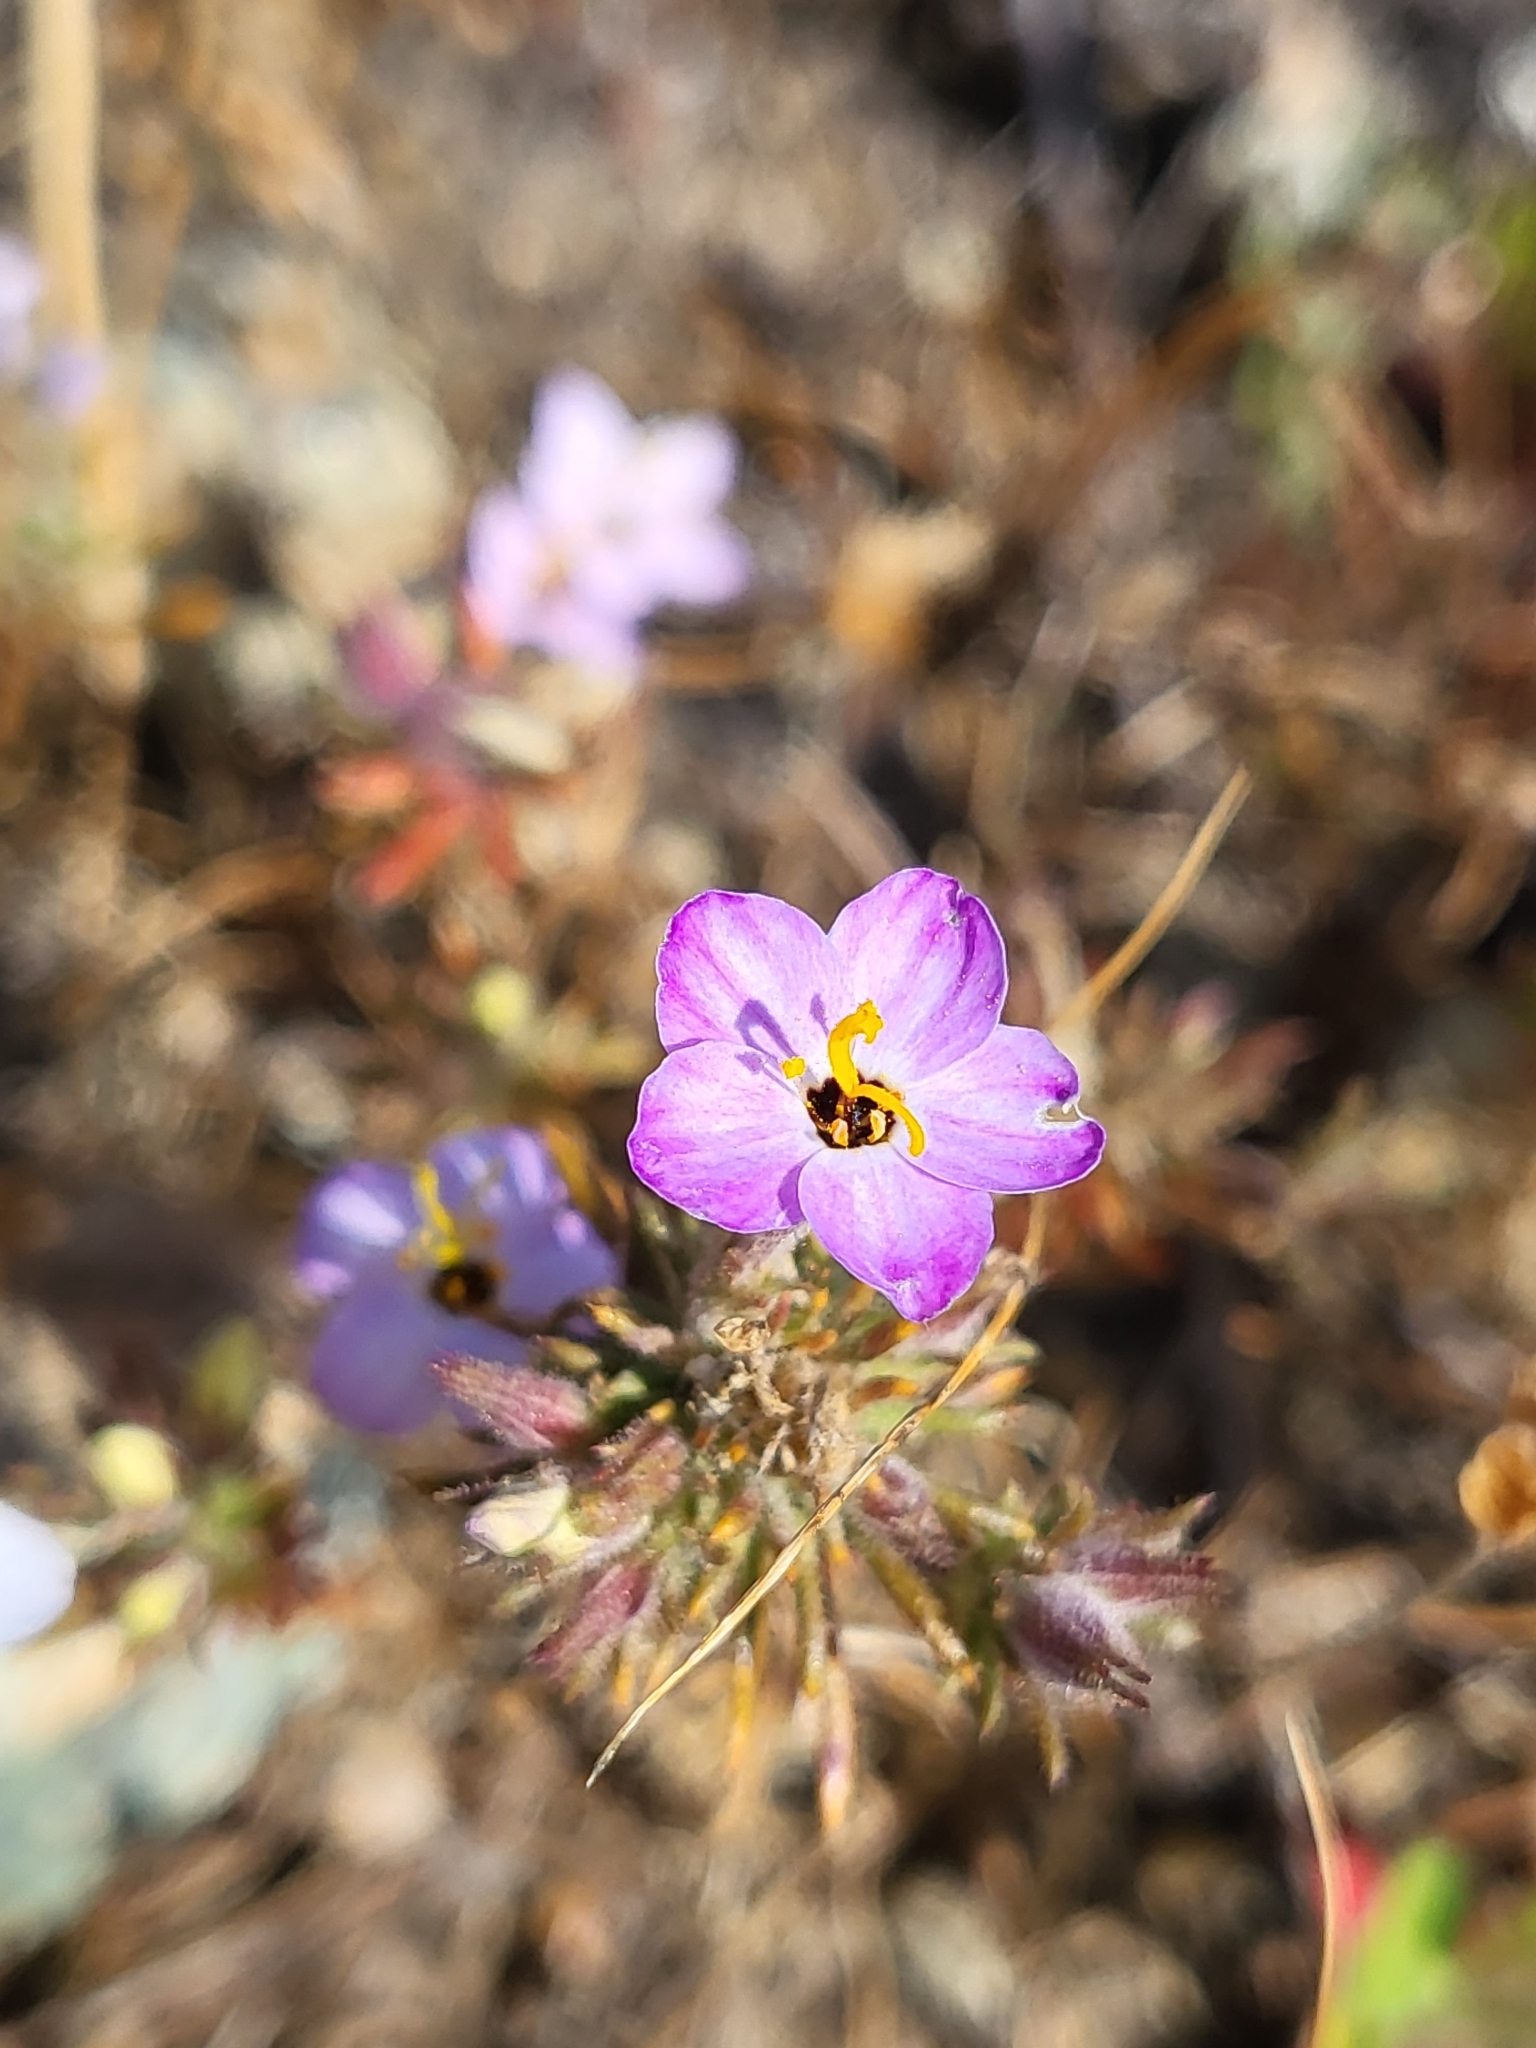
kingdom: Plantae
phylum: Tracheophyta
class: Magnoliopsida
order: Ericales
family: Polemoniaceae
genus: Leptosiphon
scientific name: Leptosiphon parviflorus
